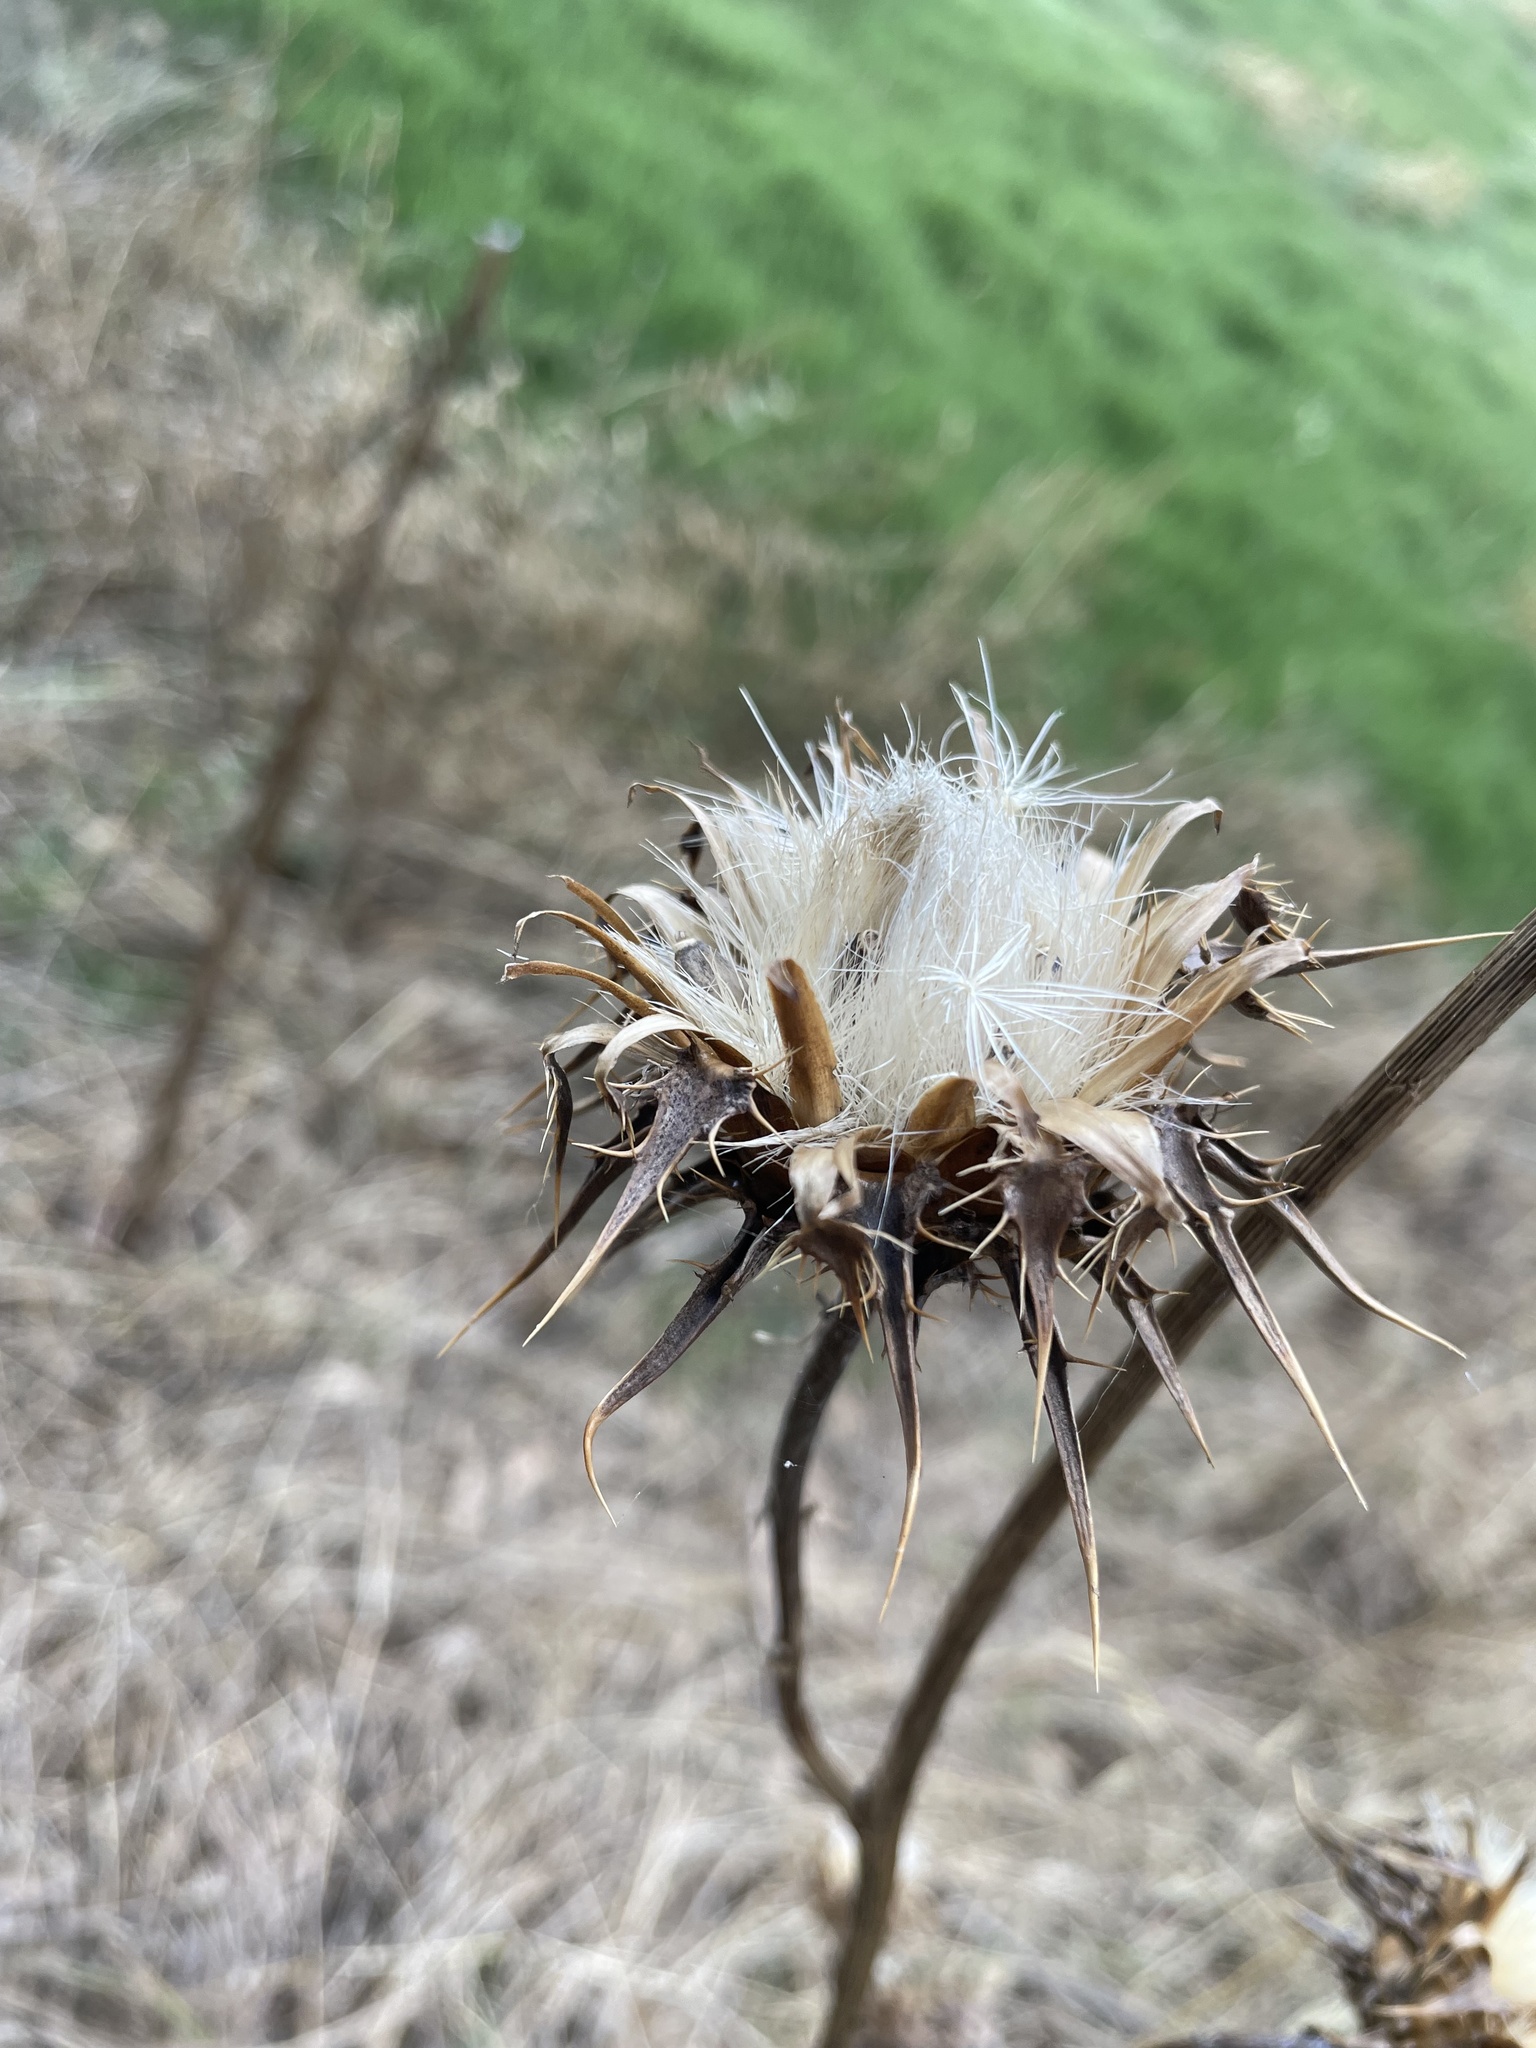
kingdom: Plantae
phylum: Tracheophyta
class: Magnoliopsida
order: Asterales
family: Asteraceae
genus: Silybum
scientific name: Silybum marianum
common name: Milk thistle
